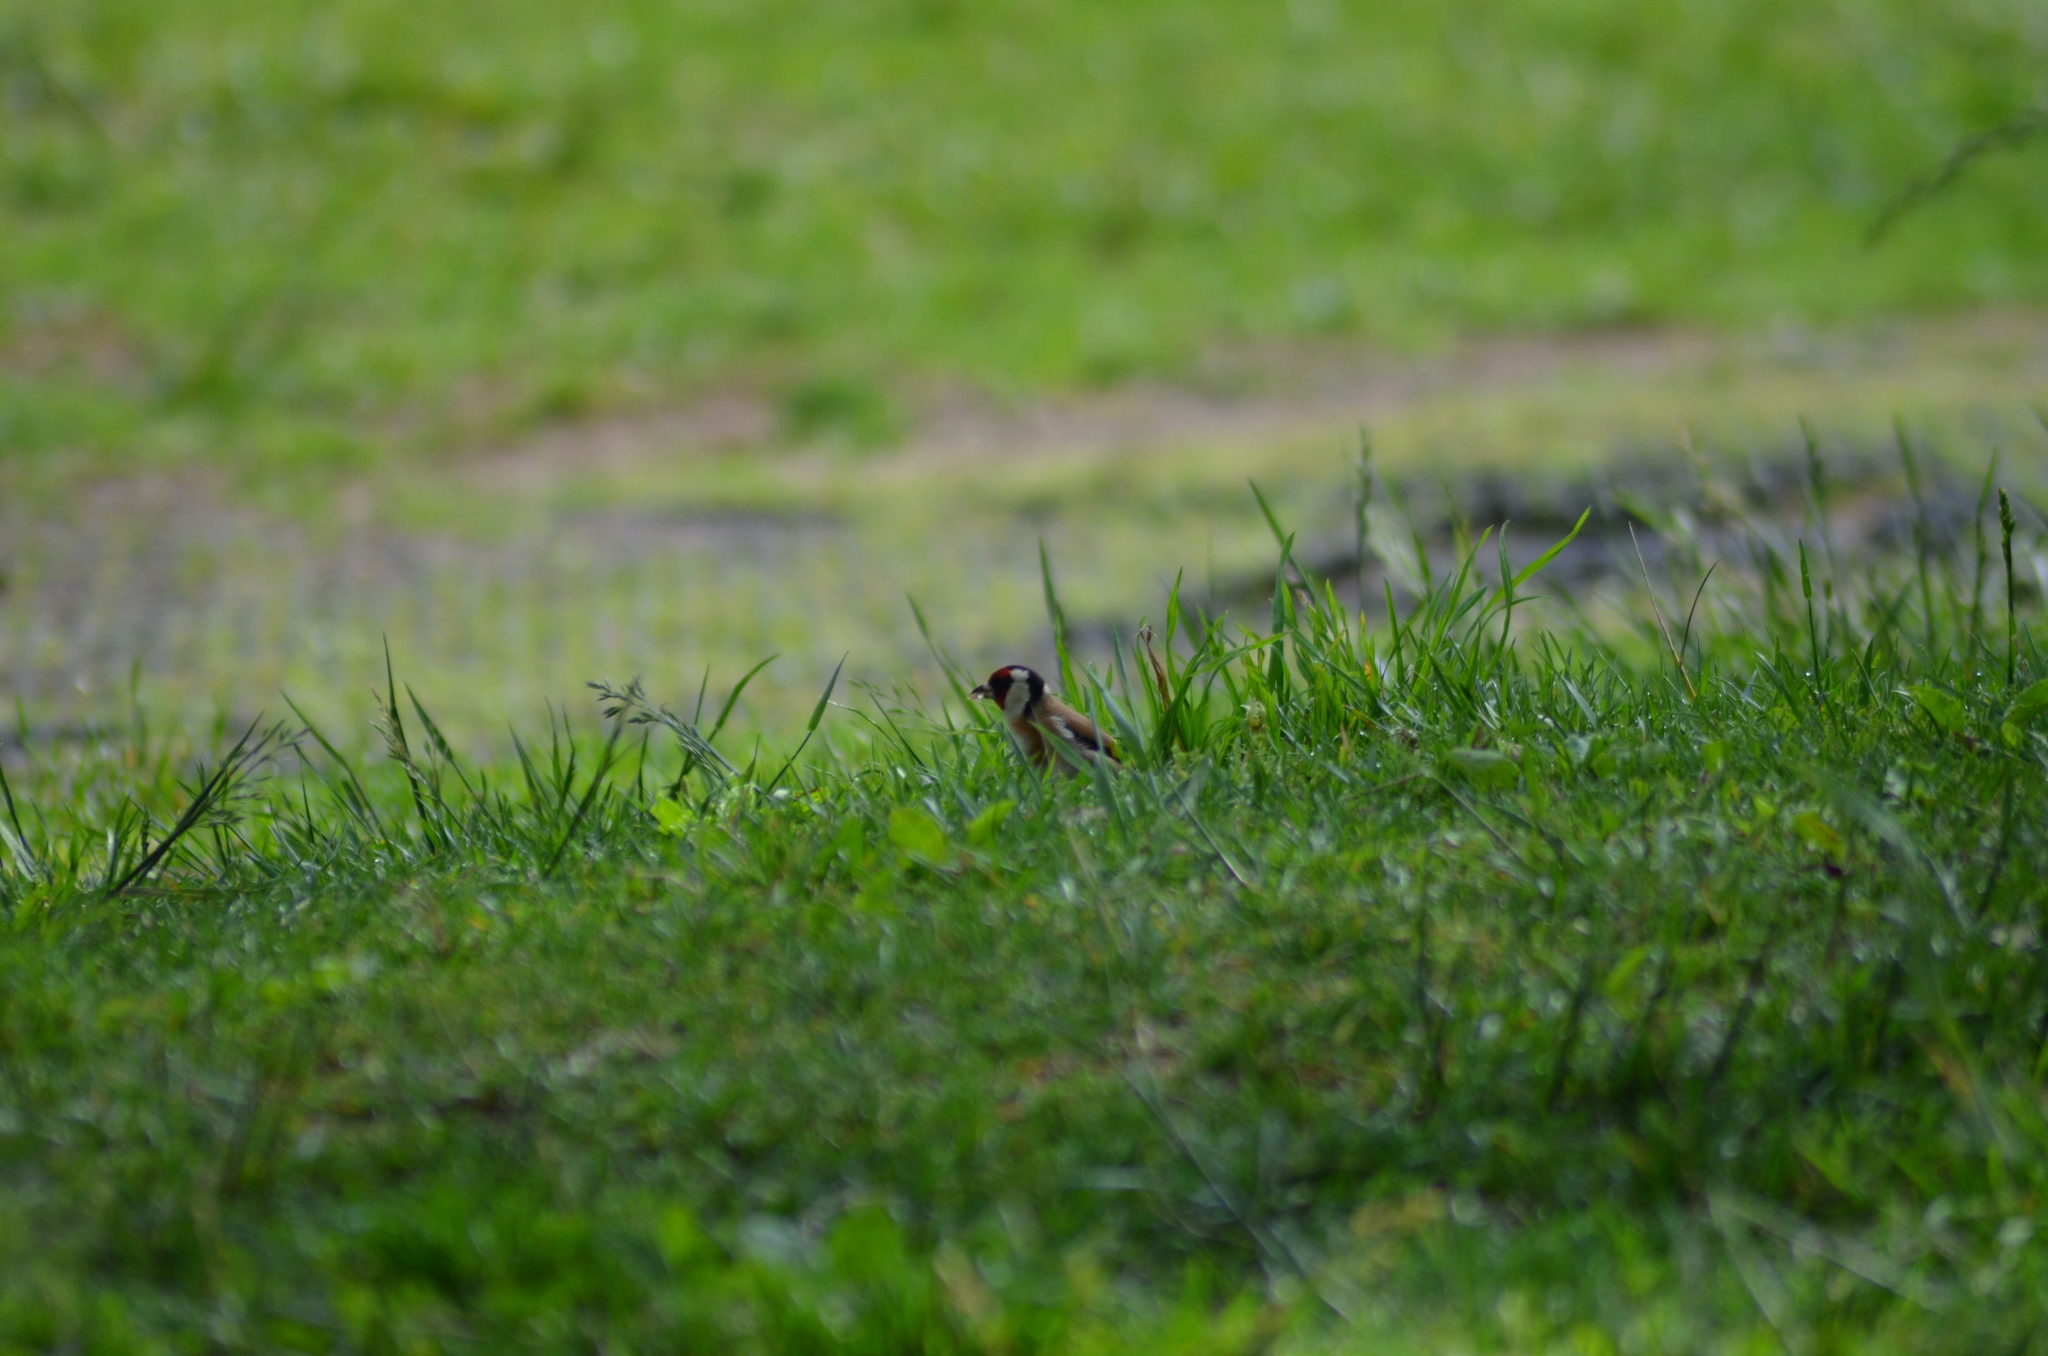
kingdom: Animalia
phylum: Chordata
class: Aves
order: Passeriformes
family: Fringillidae
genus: Carduelis
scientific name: Carduelis carduelis
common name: European goldfinch
